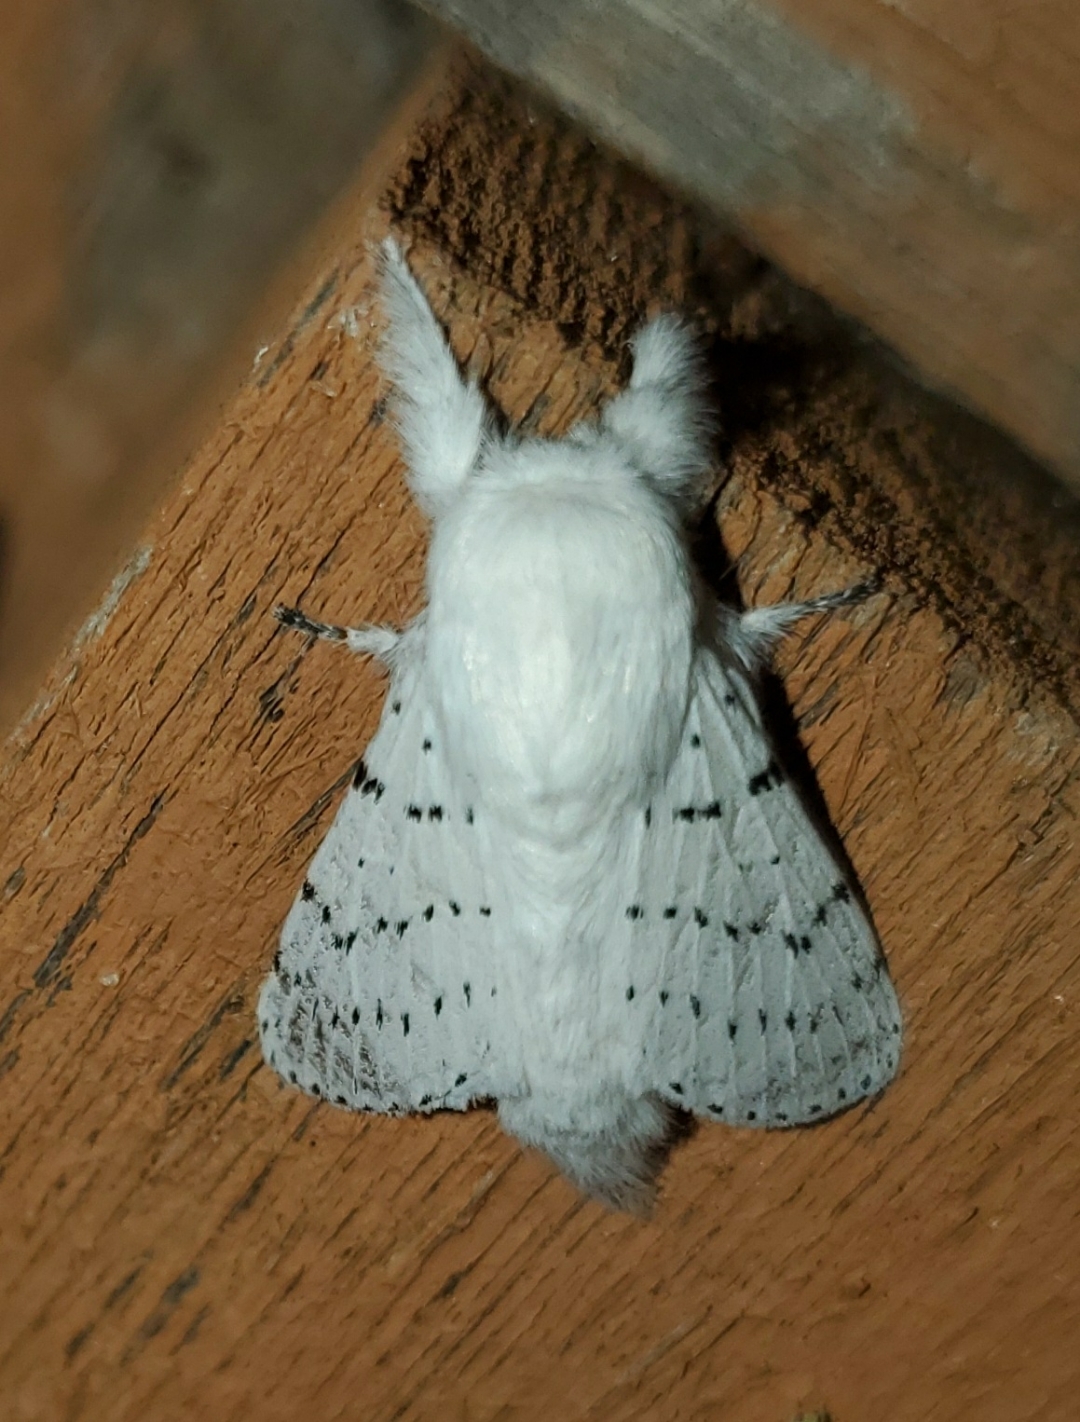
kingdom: Animalia
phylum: Arthropoda
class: Insecta
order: Lepidoptera
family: Lasiocampidae
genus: Artace
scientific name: Artace cribrarius
